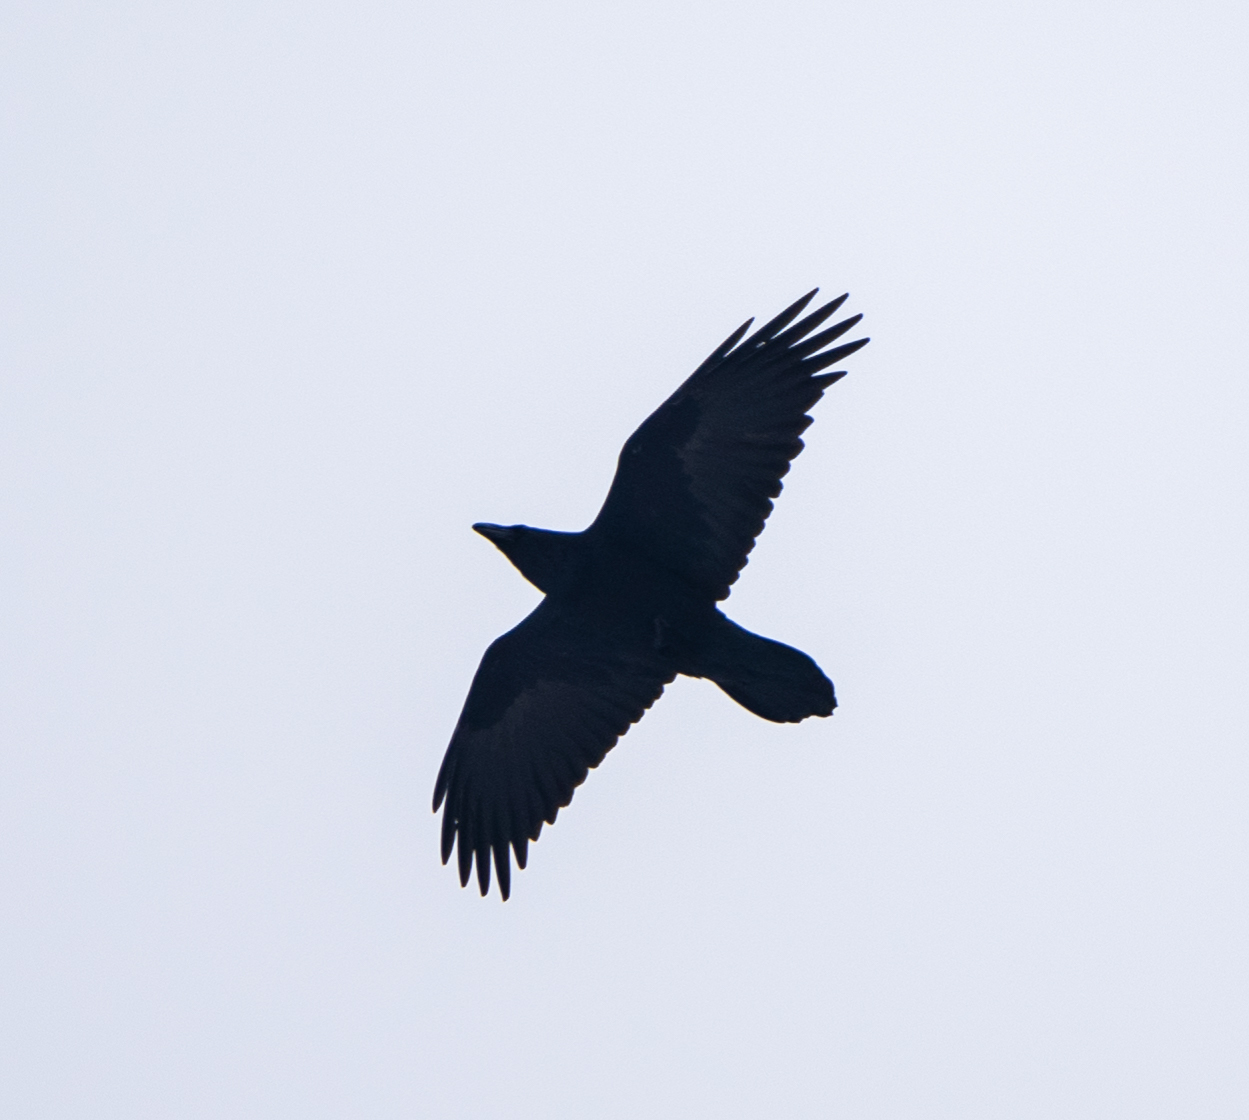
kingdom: Animalia
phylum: Chordata
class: Aves
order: Passeriformes
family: Corvidae
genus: Corvus
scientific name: Corvus corax
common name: Common raven
